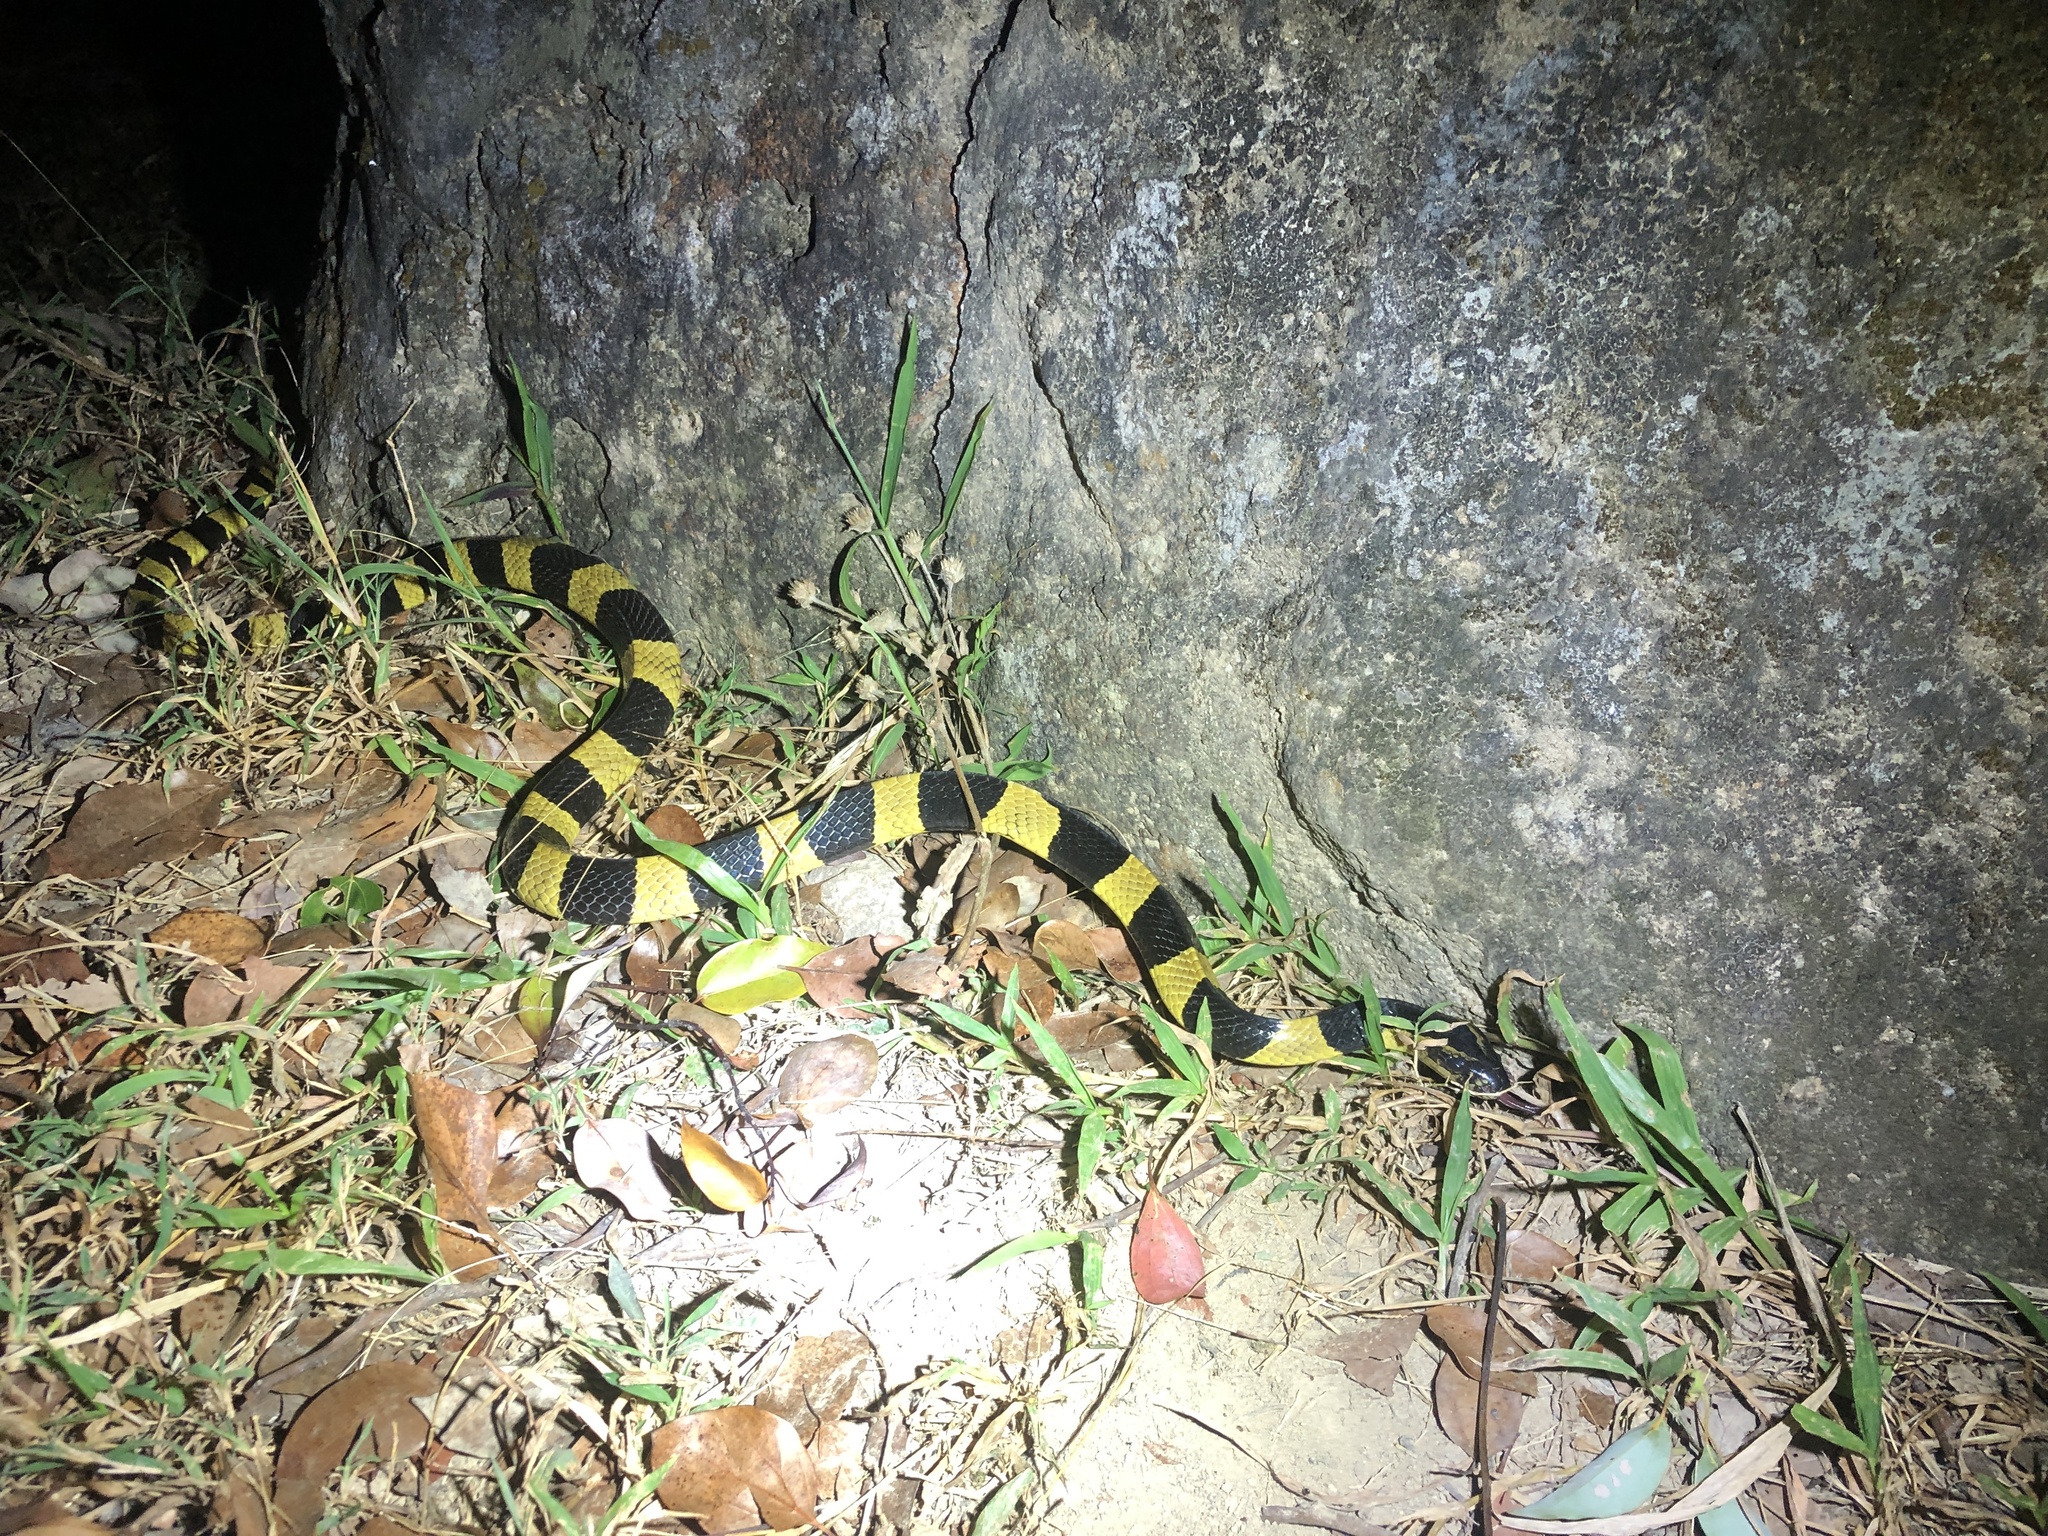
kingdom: Animalia
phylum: Chordata
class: Squamata
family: Elapidae
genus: Bungarus
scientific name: Bungarus fasciatus
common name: Banded krait
